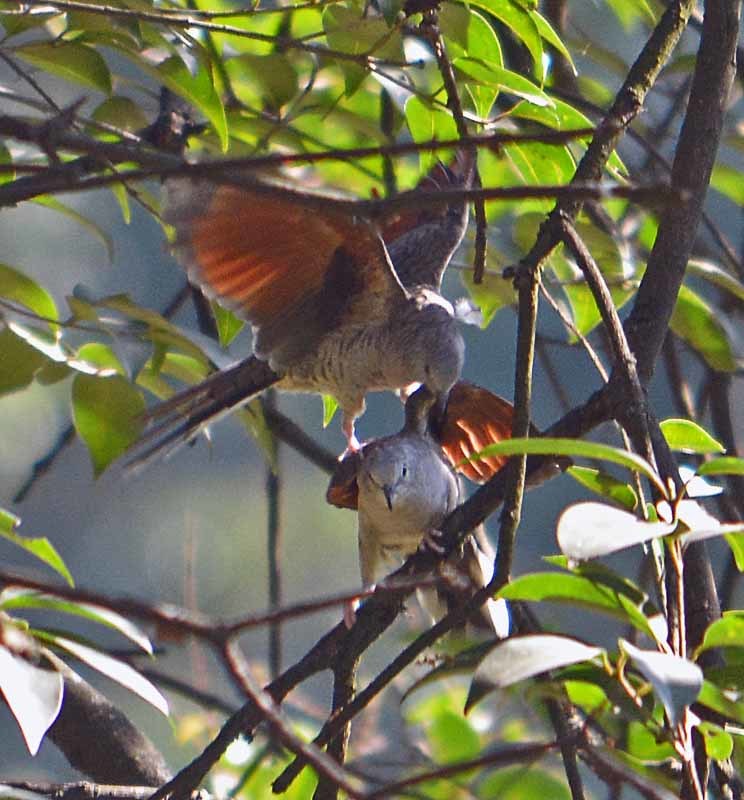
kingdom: Animalia
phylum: Chordata
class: Aves
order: Columbiformes
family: Columbidae
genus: Columbina
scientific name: Columbina inca
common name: Inca dove
